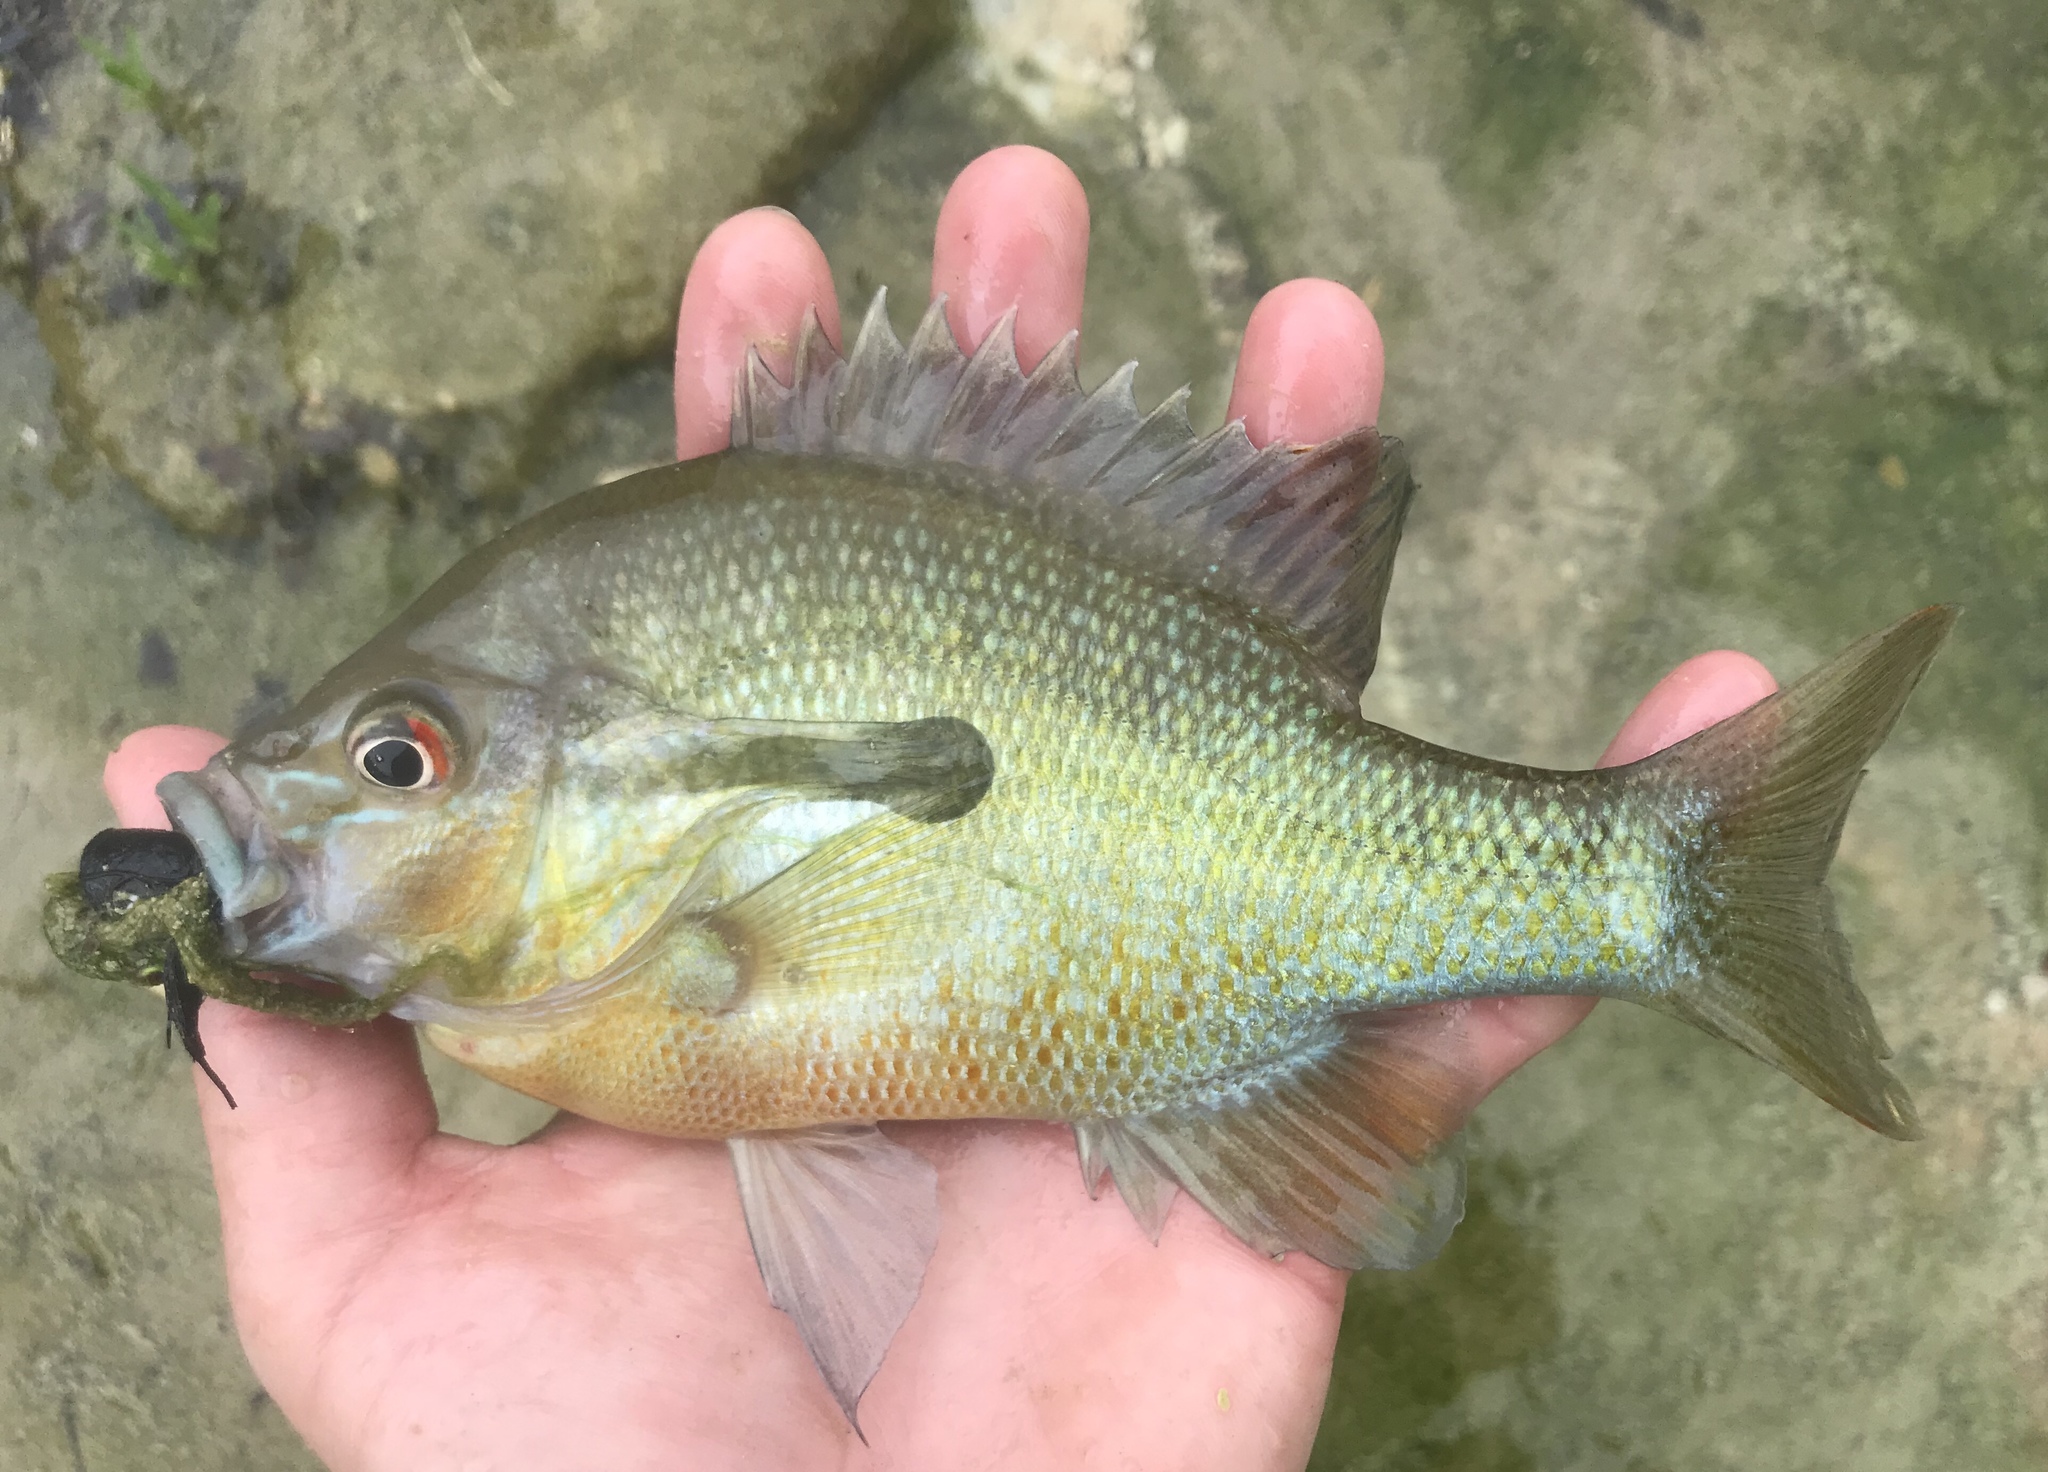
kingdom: Animalia
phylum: Chordata
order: Perciformes
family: Centrarchidae
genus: Lepomis
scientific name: Lepomis auritus
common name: Redbreast sunfish
